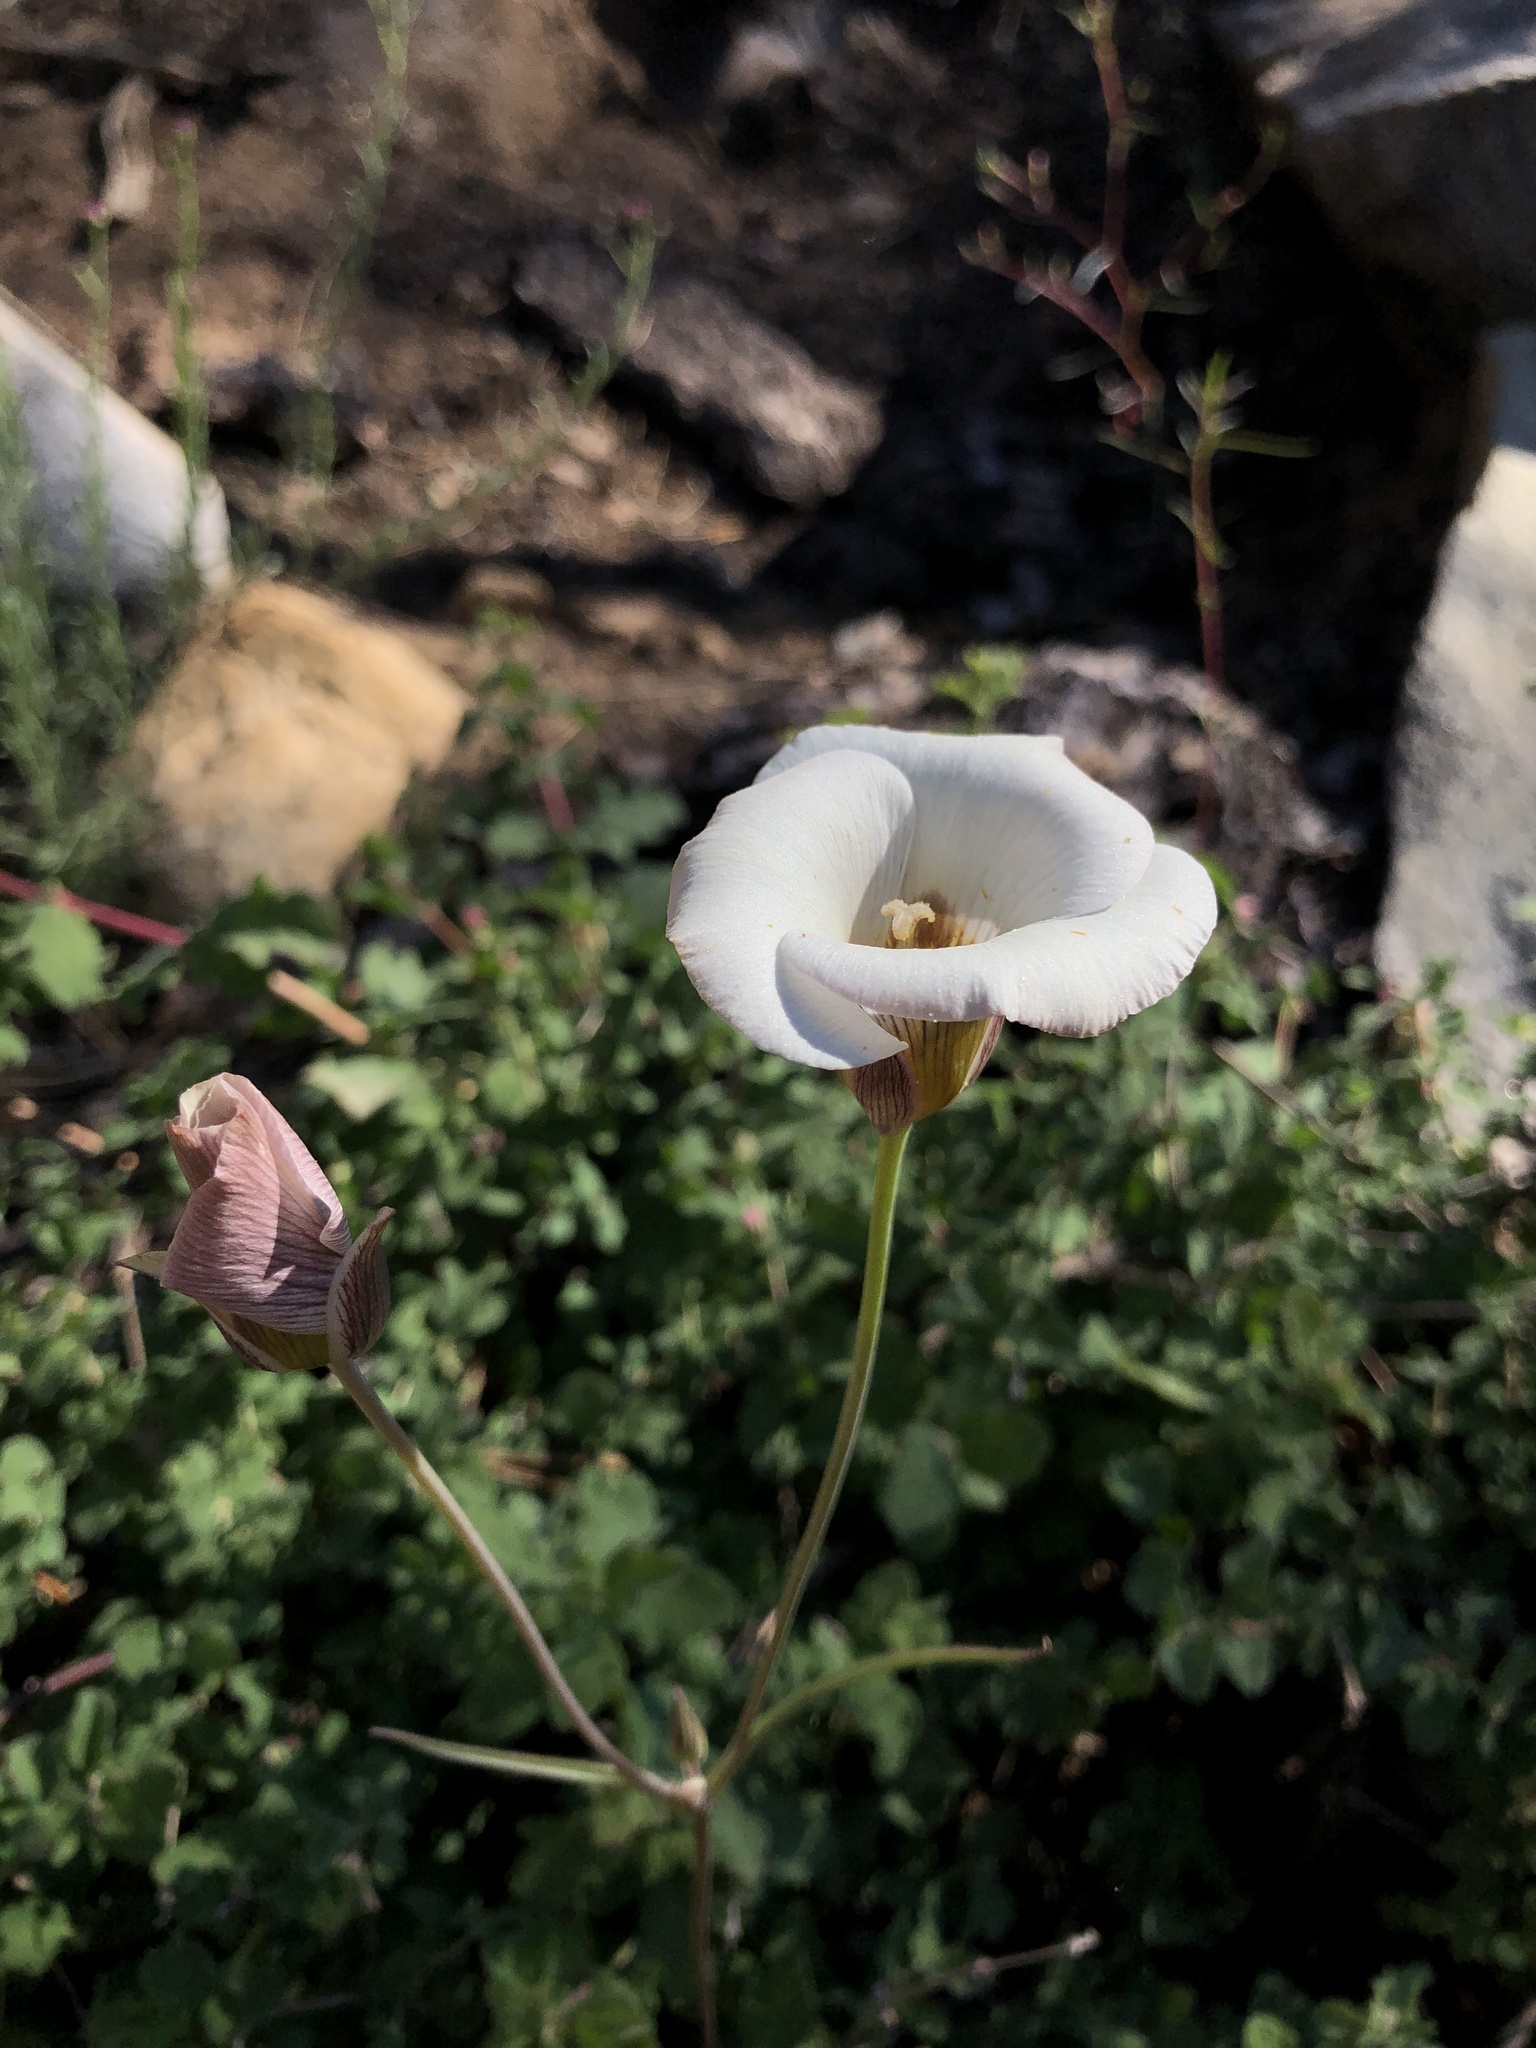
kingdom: Plantae
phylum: Tracheophyta
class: Liliopsida
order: Liliales
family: Liliaceae
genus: Calochortus
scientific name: Calochortus leichtlinii
